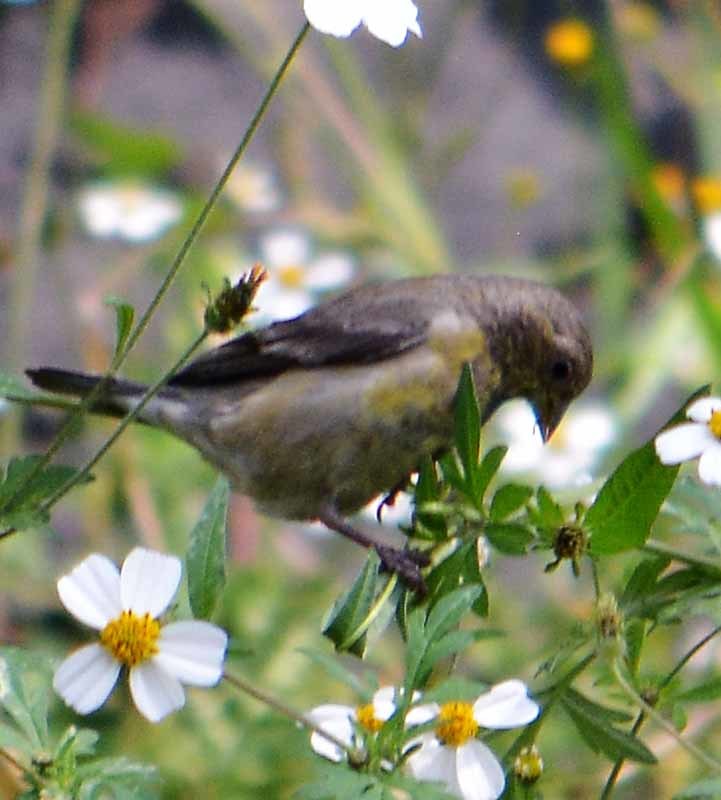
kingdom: Animalia
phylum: Chordata
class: Aves
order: Passeriformes
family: Fringillidae
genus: Spinus
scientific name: Spinus psaltria
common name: Lesser goldfinch
